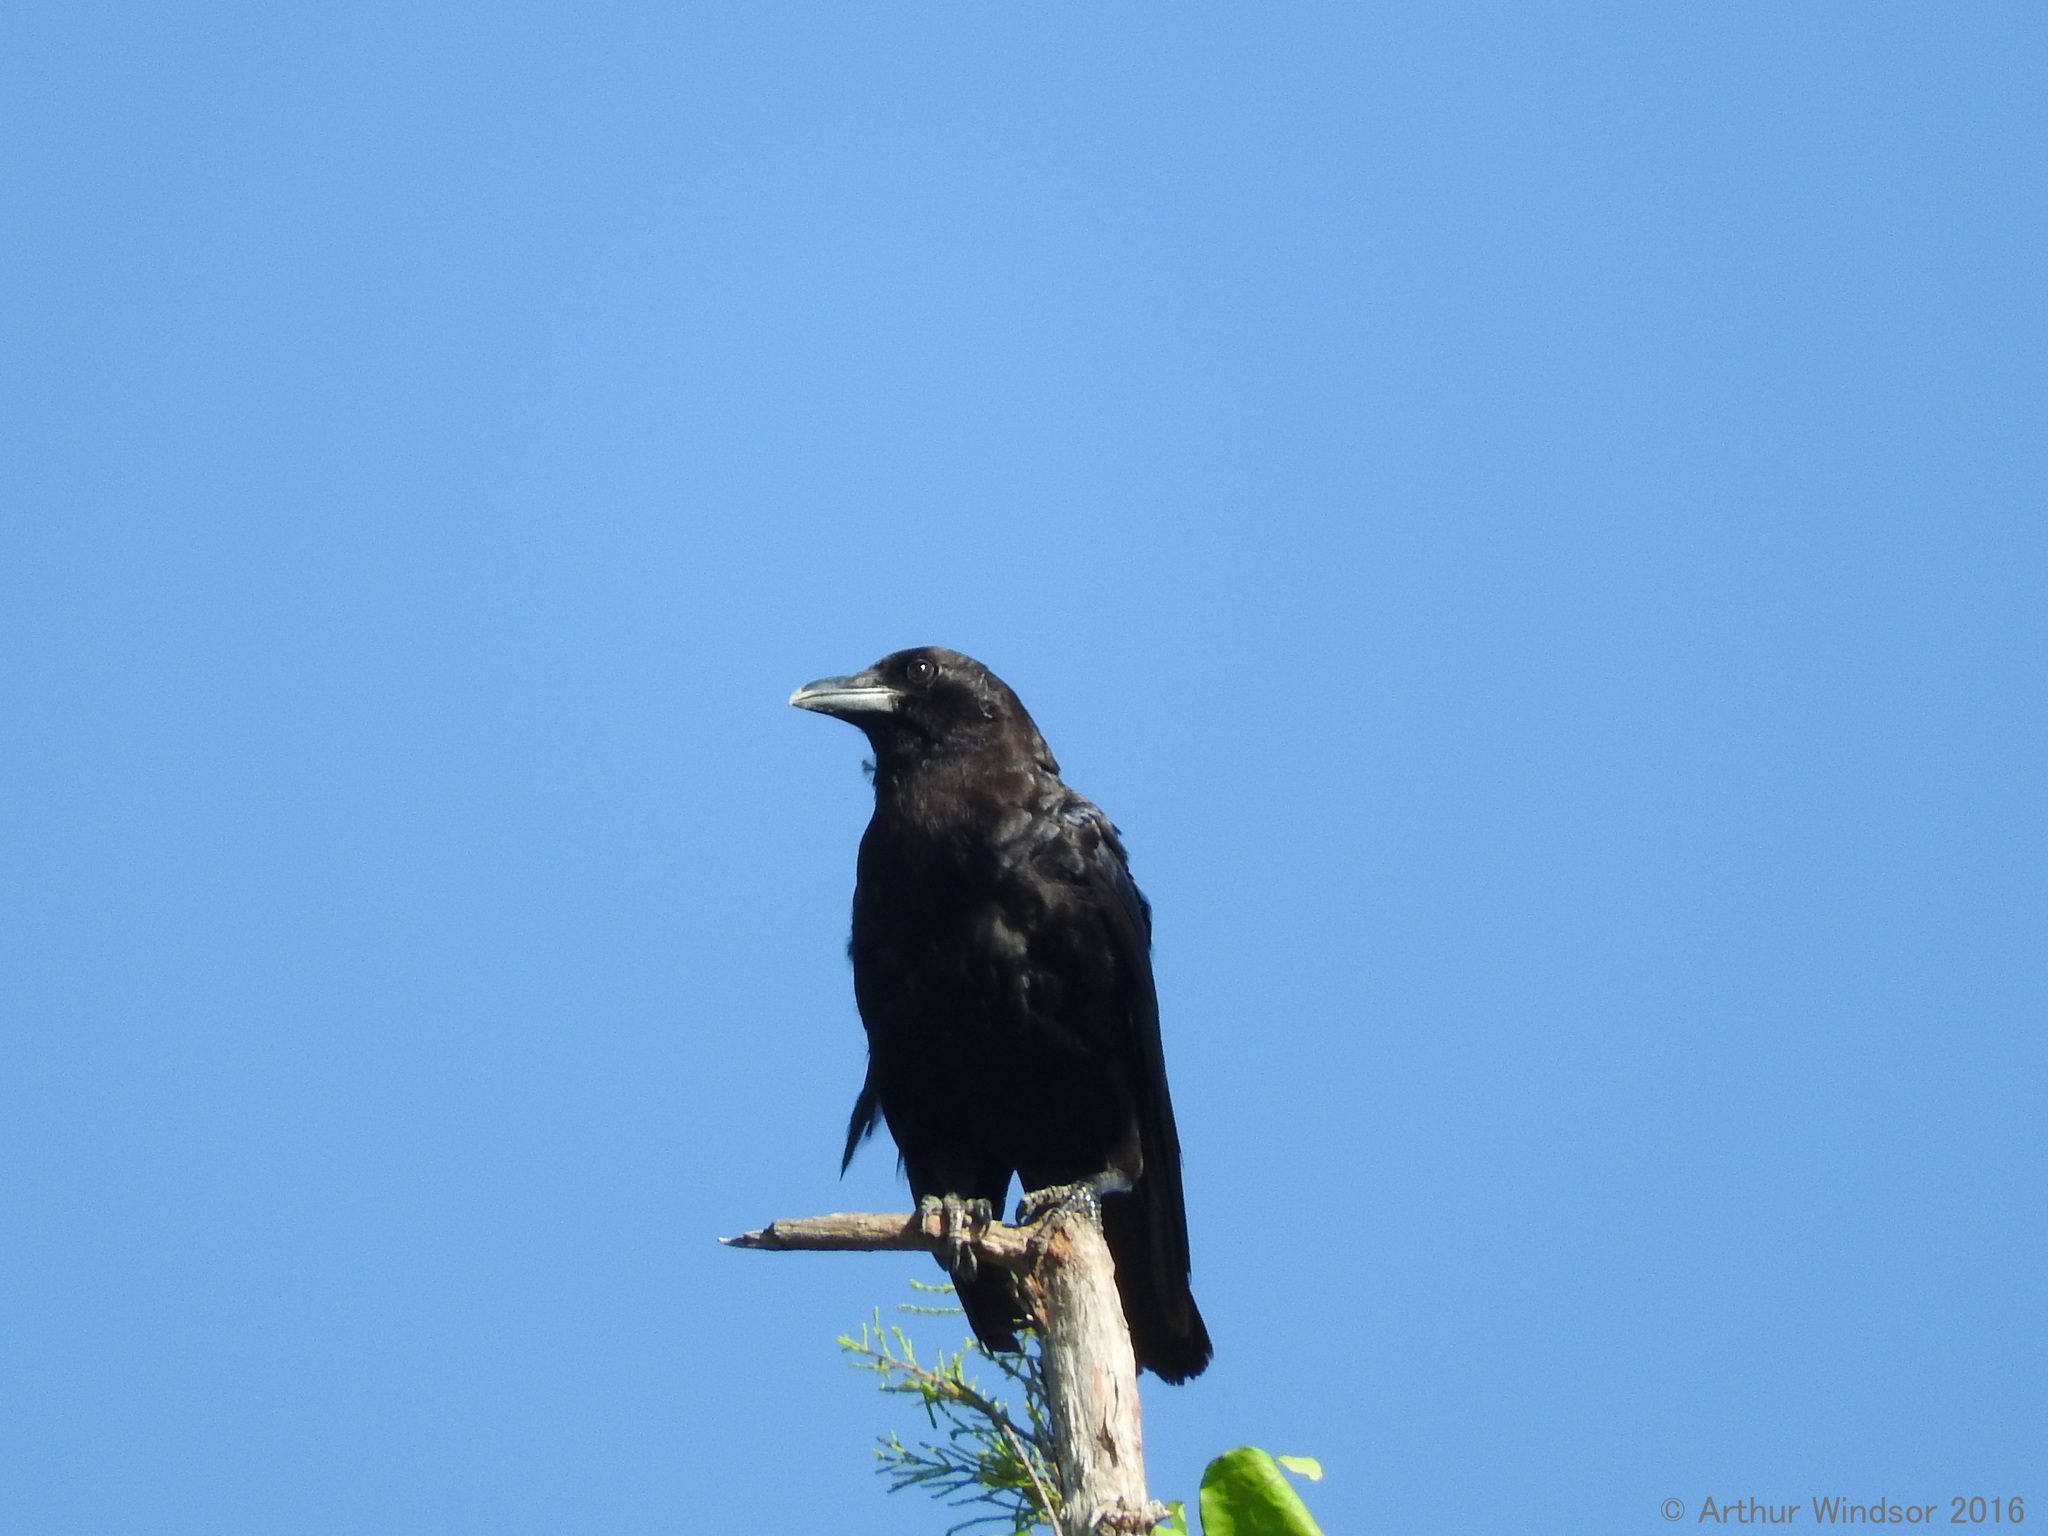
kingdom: Animalia
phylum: Chordata
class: Aves
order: Passeriformes
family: Corvidae
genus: Corvus
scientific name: Corvus brachyrhynchos
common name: American crow
